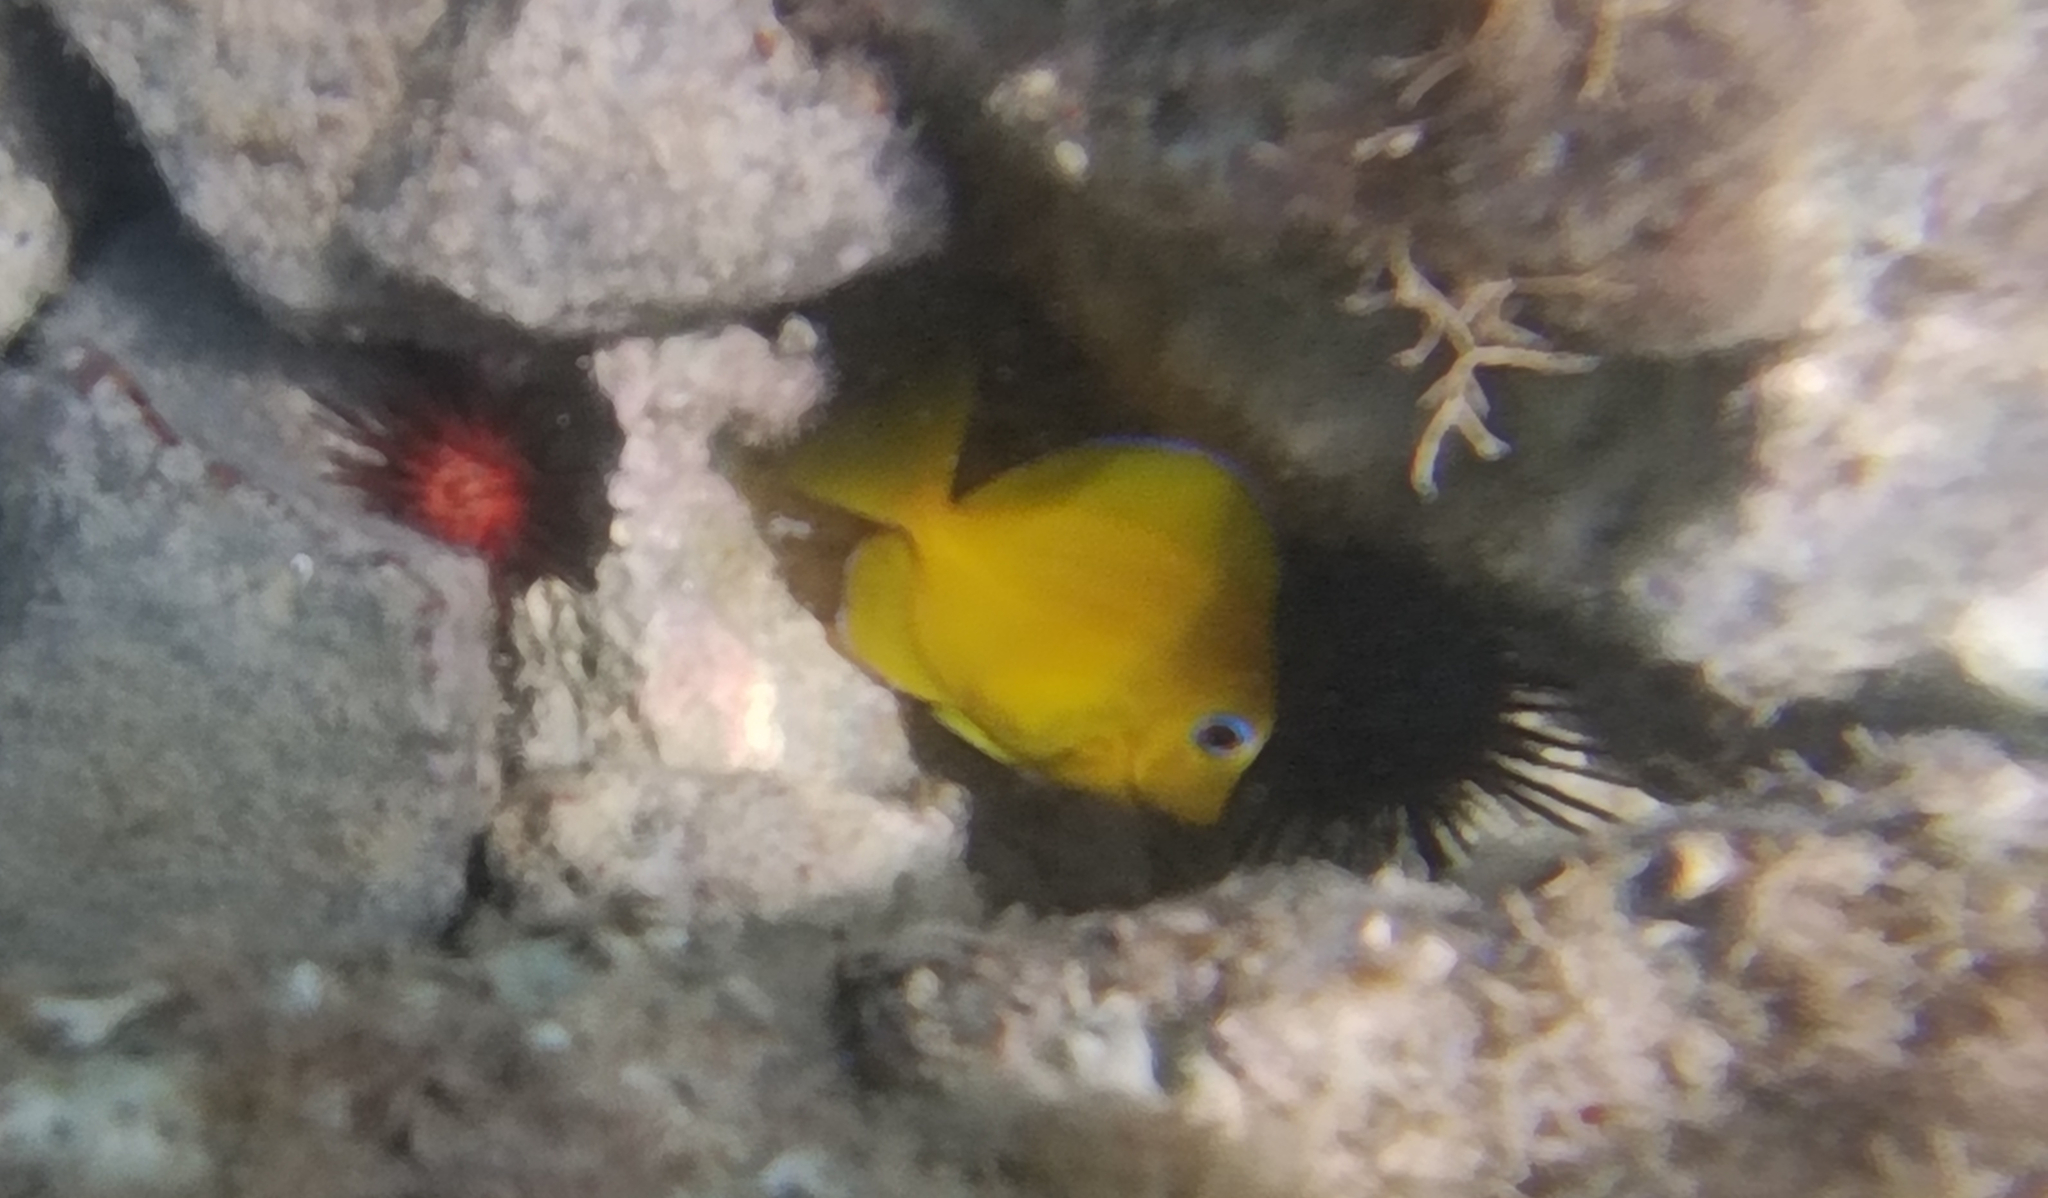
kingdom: Animalia
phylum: Chordata
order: Perciformes
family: Acanthuridae
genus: Acanthurus
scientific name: Acanthurus coeruleus
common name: Blue tang
